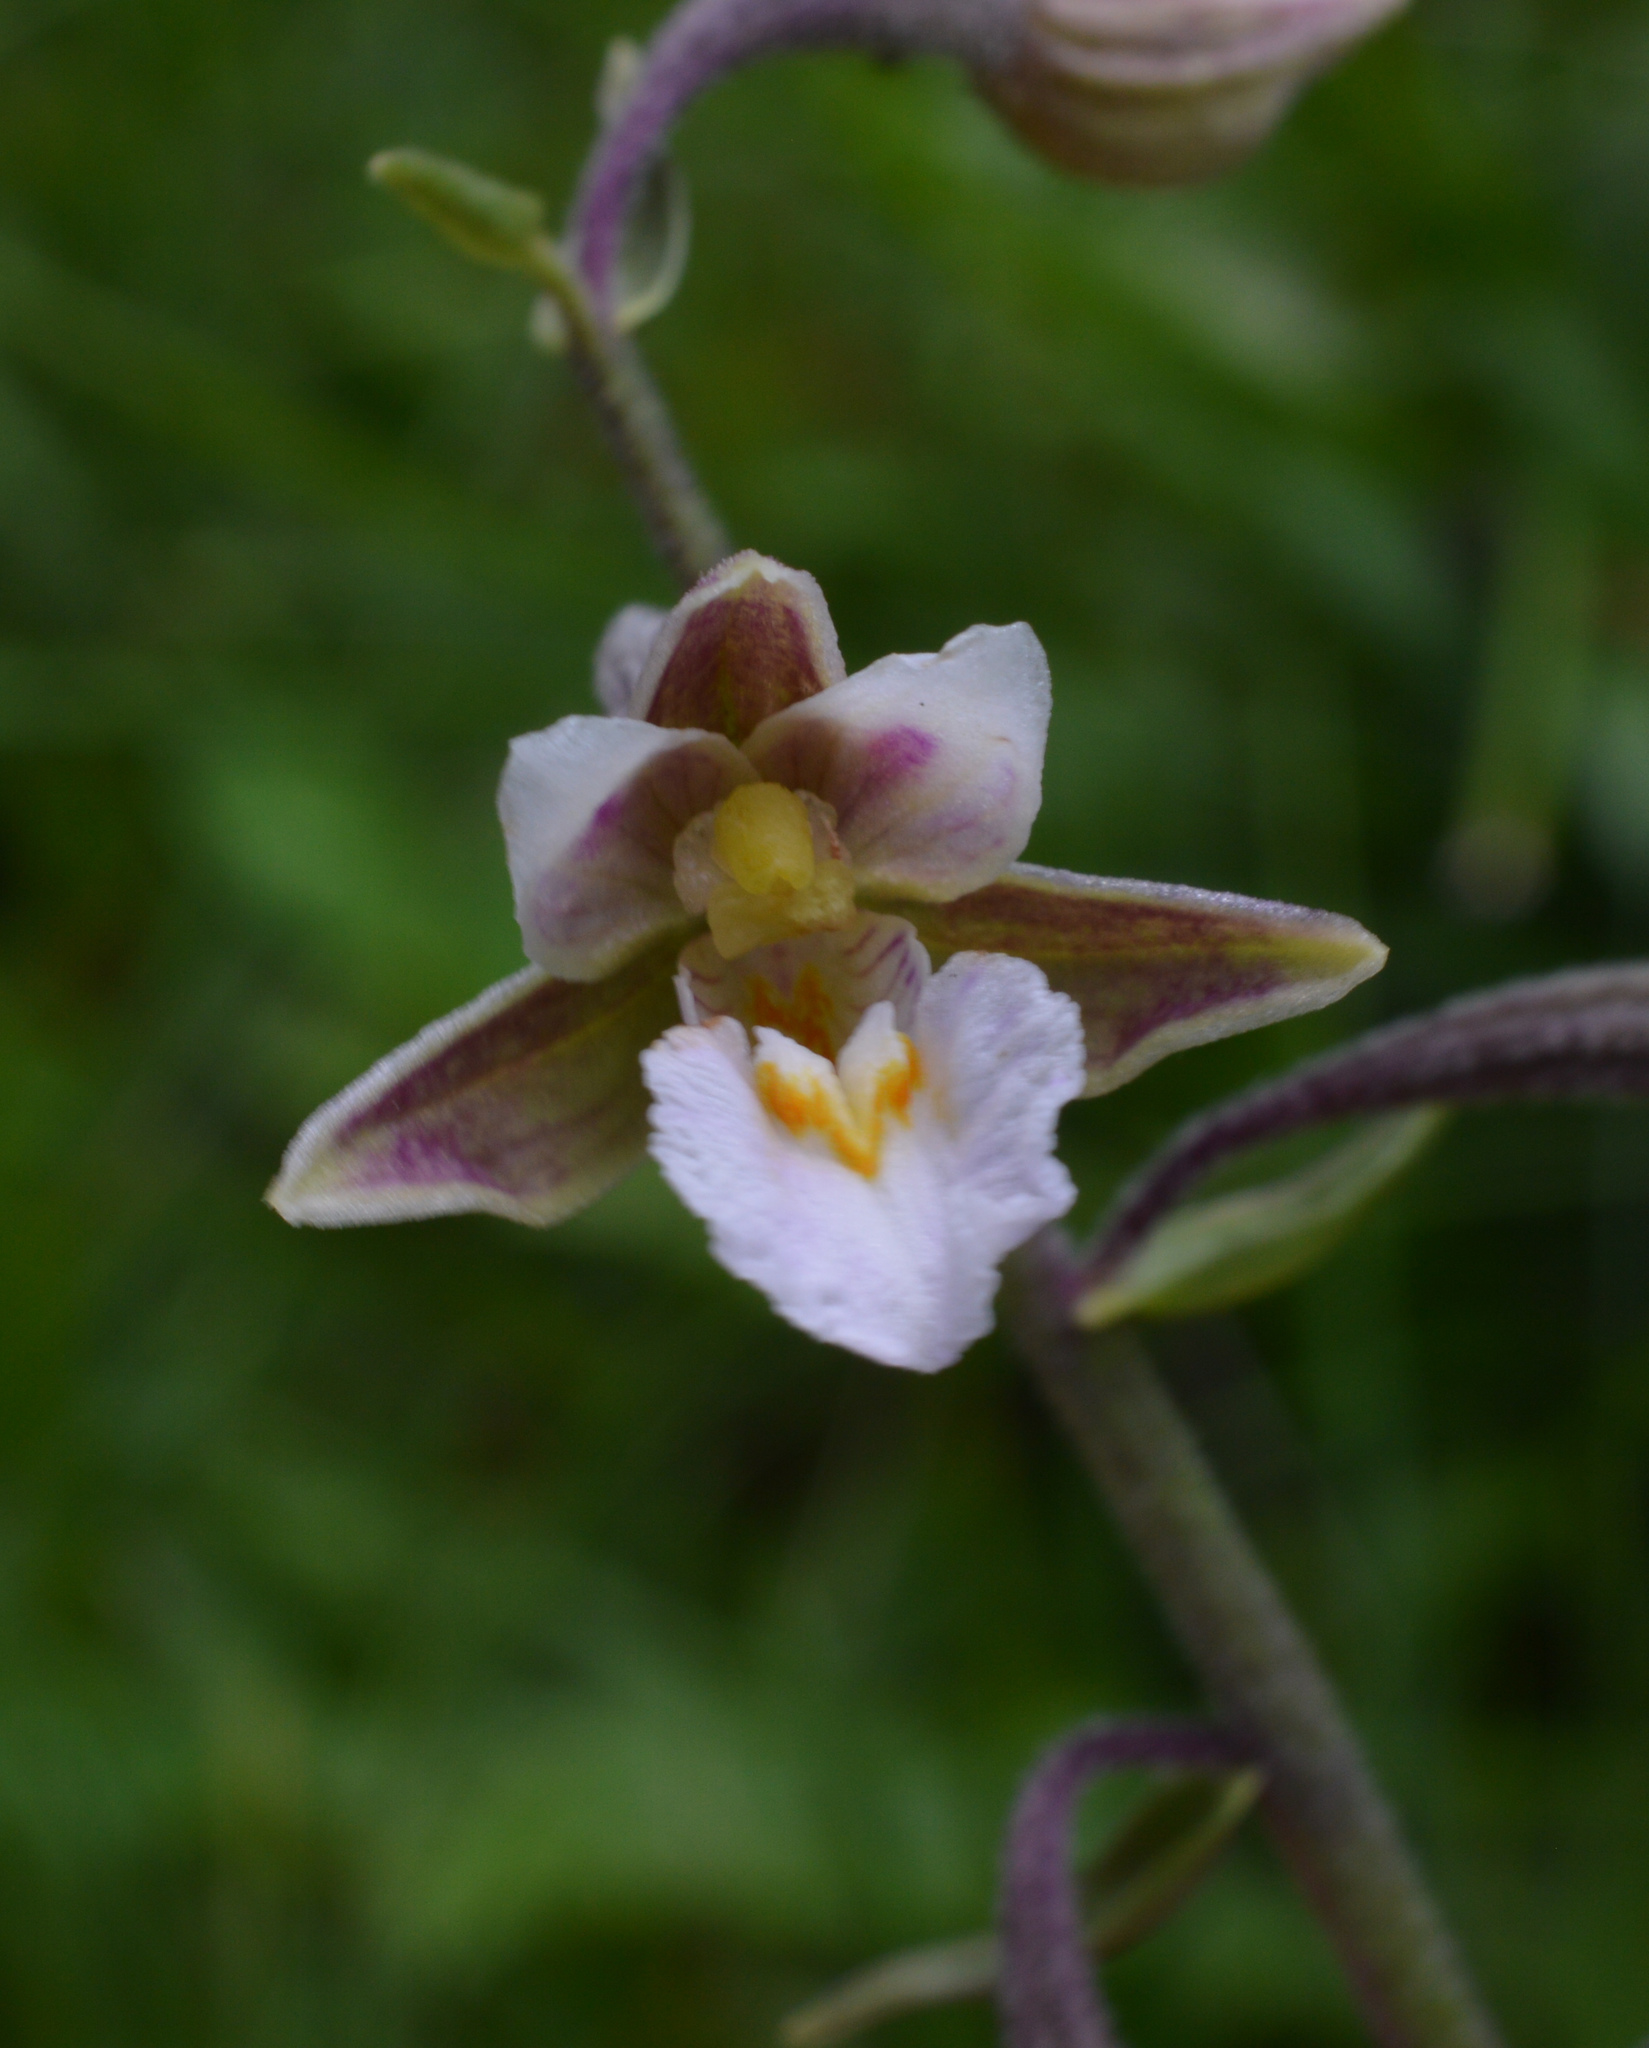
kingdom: Plantae
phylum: Tracheophyta
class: Liliopsida
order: Asparagales
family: Orchidaceae
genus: Epipactis
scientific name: Epipactis palustris
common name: Marsh helleborine
